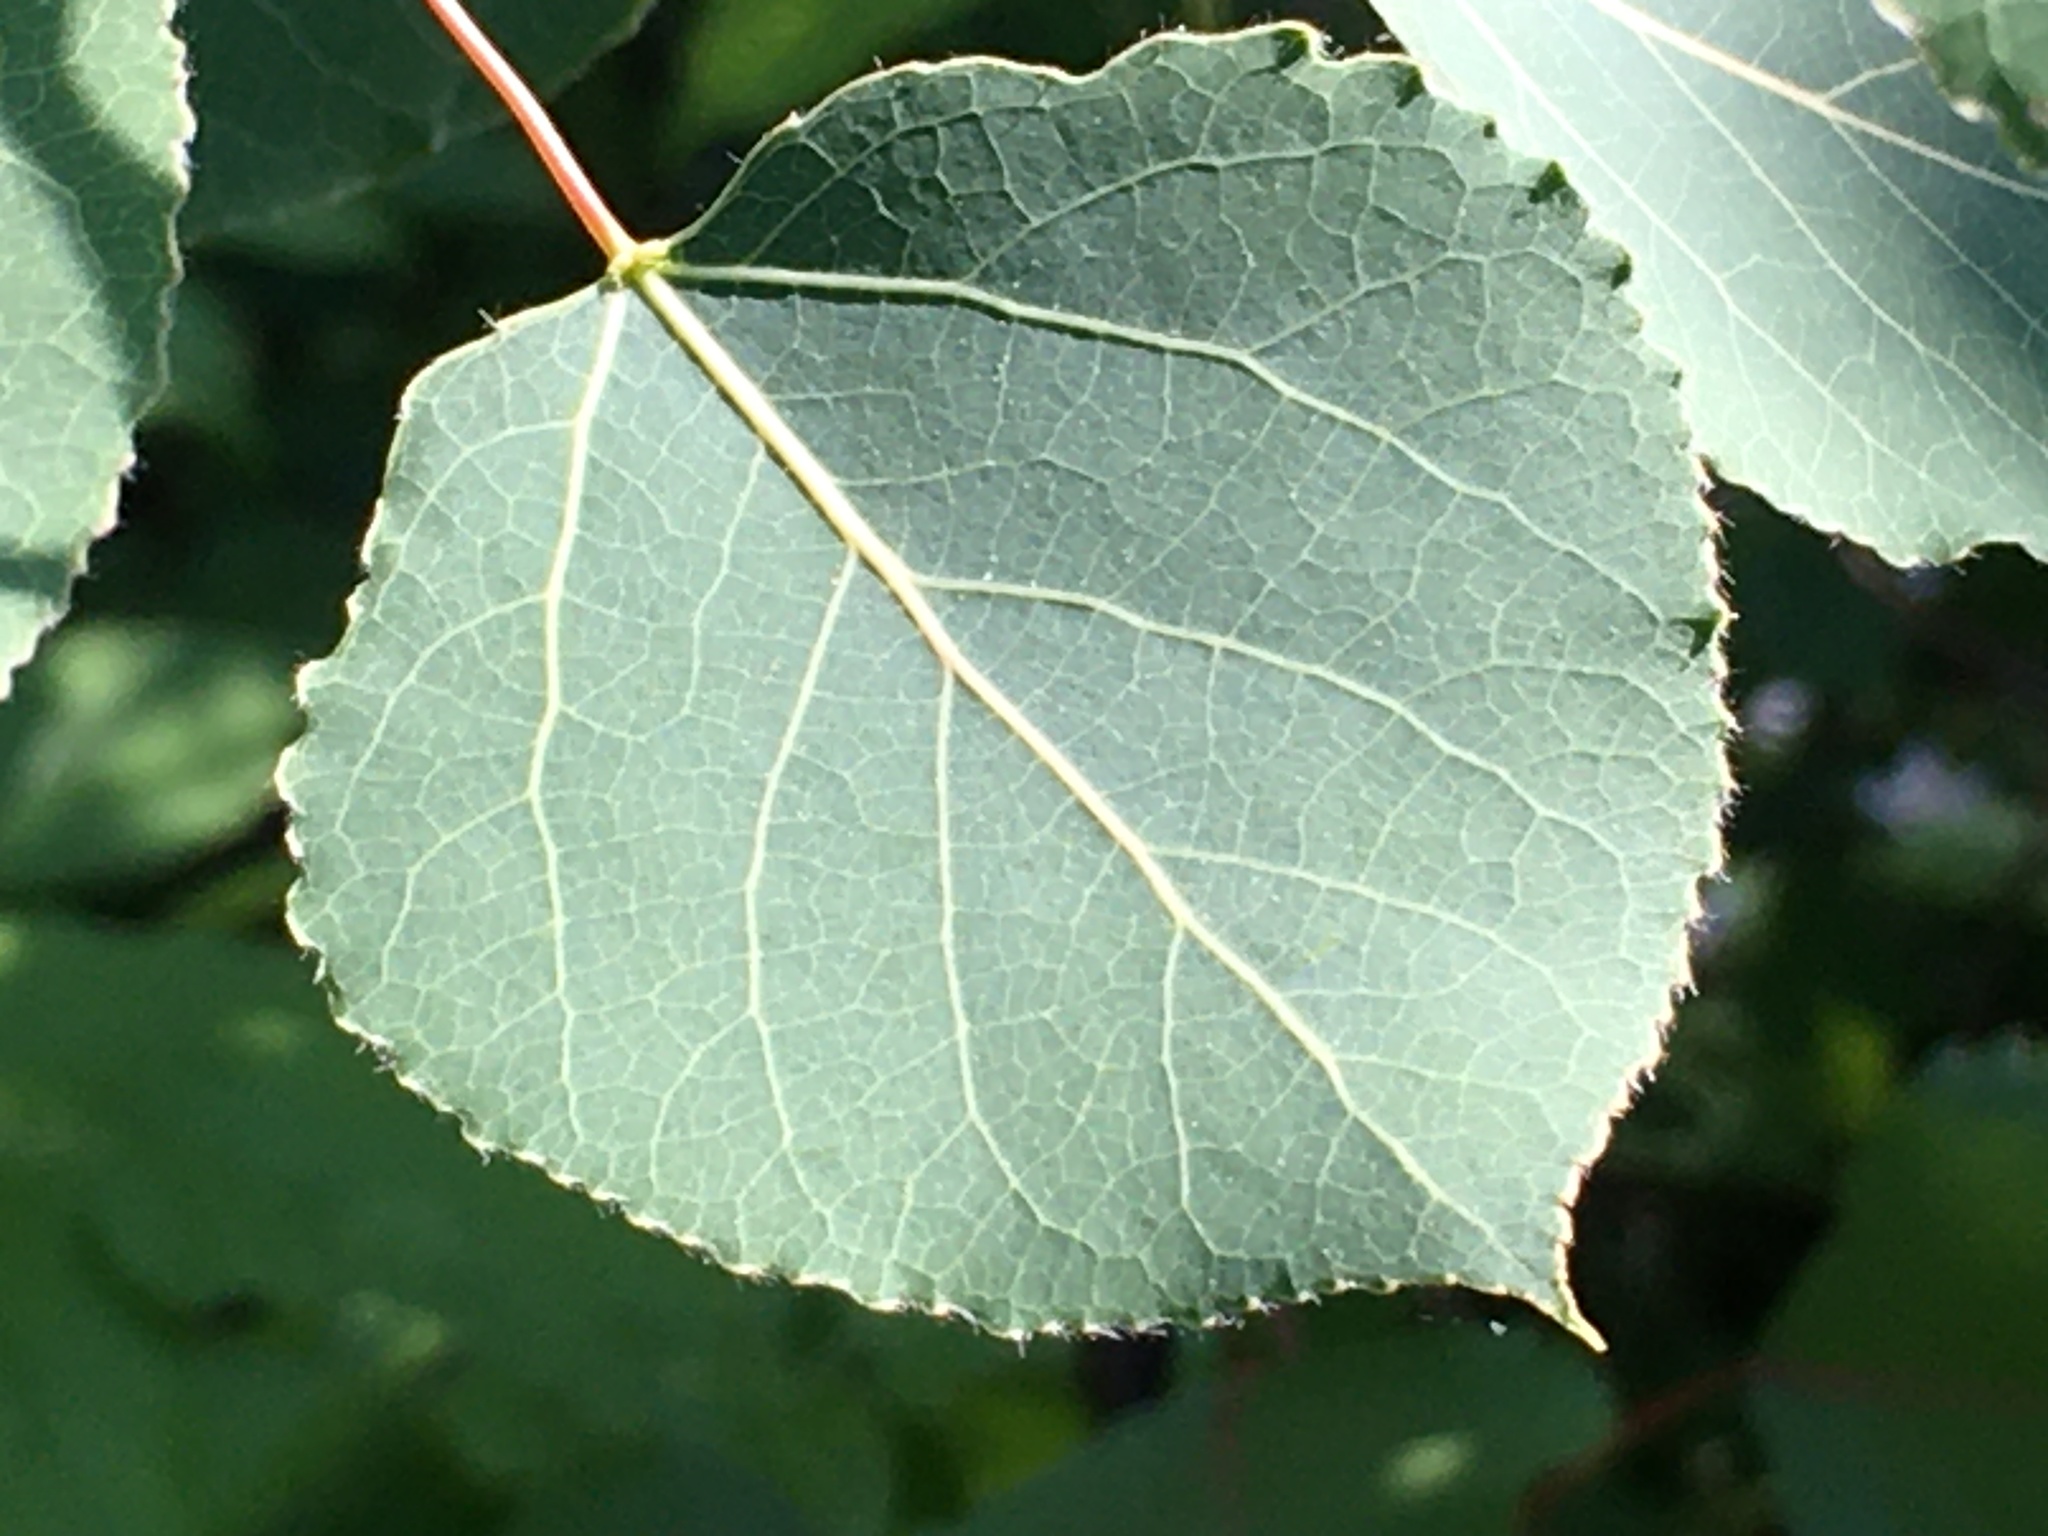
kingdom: Plantae
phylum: Tracheophyta
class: Magnoliopsida
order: Malpighiales
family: Salicaceae
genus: Populus
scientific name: Populus tremuloides
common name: Quaking aspen
